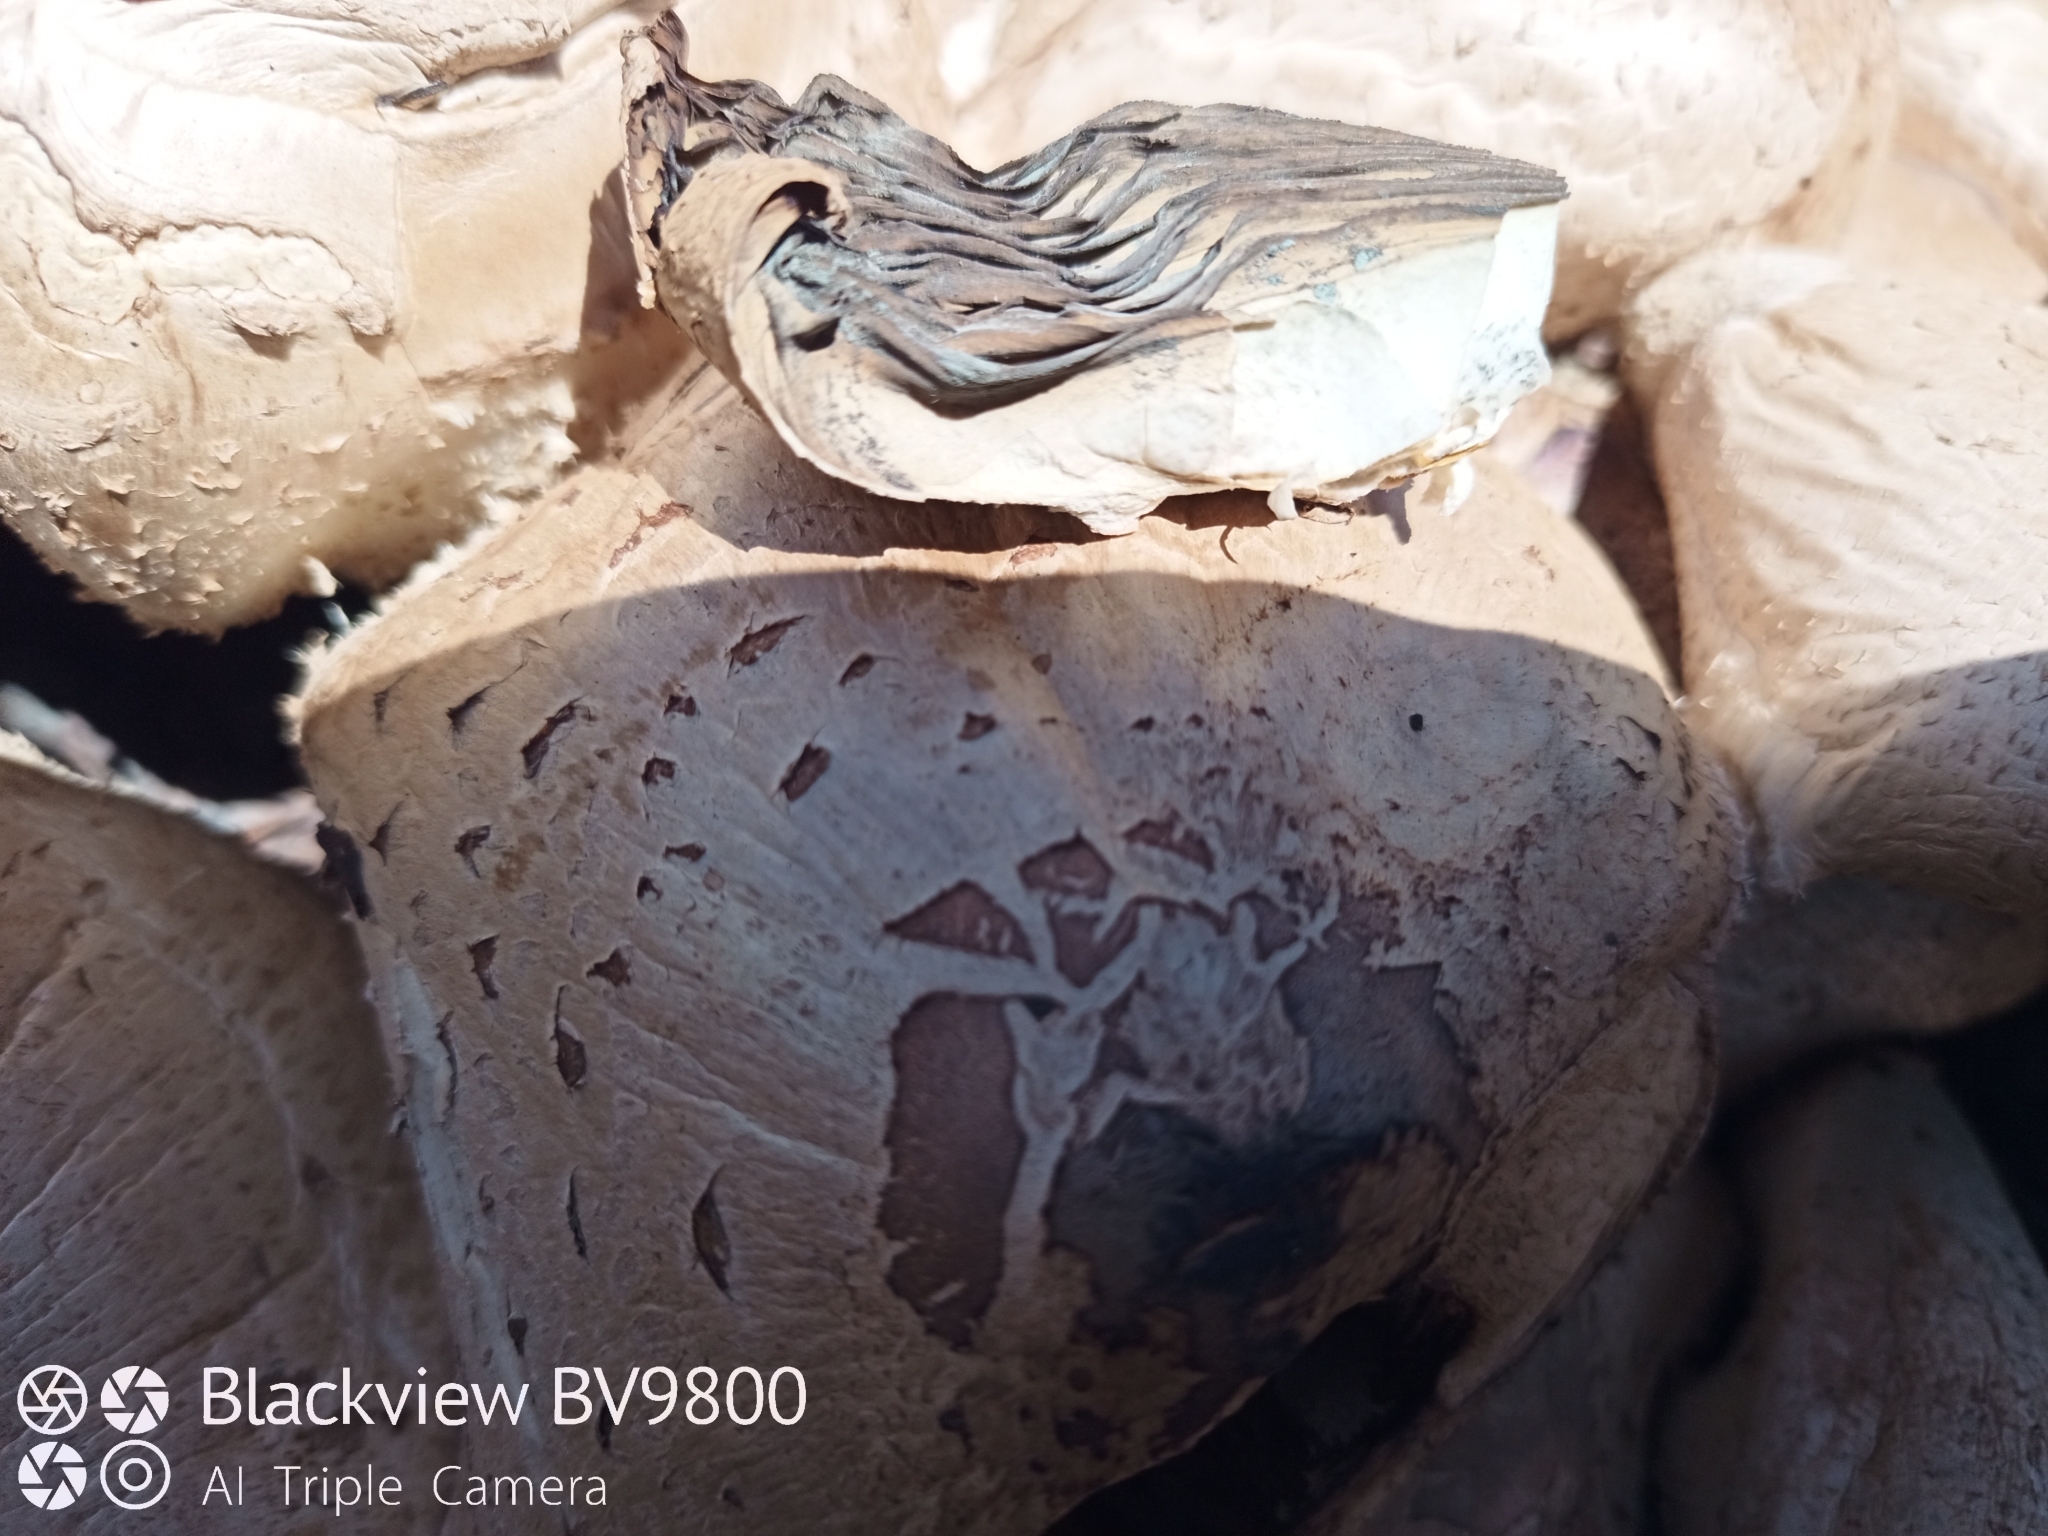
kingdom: Fungi
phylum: Basidiomycota
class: Agaricomycetes
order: Agaricales
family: Agaricaceae
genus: Chlorophyllum
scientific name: Chlorophyllum molybdites
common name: False parasol
